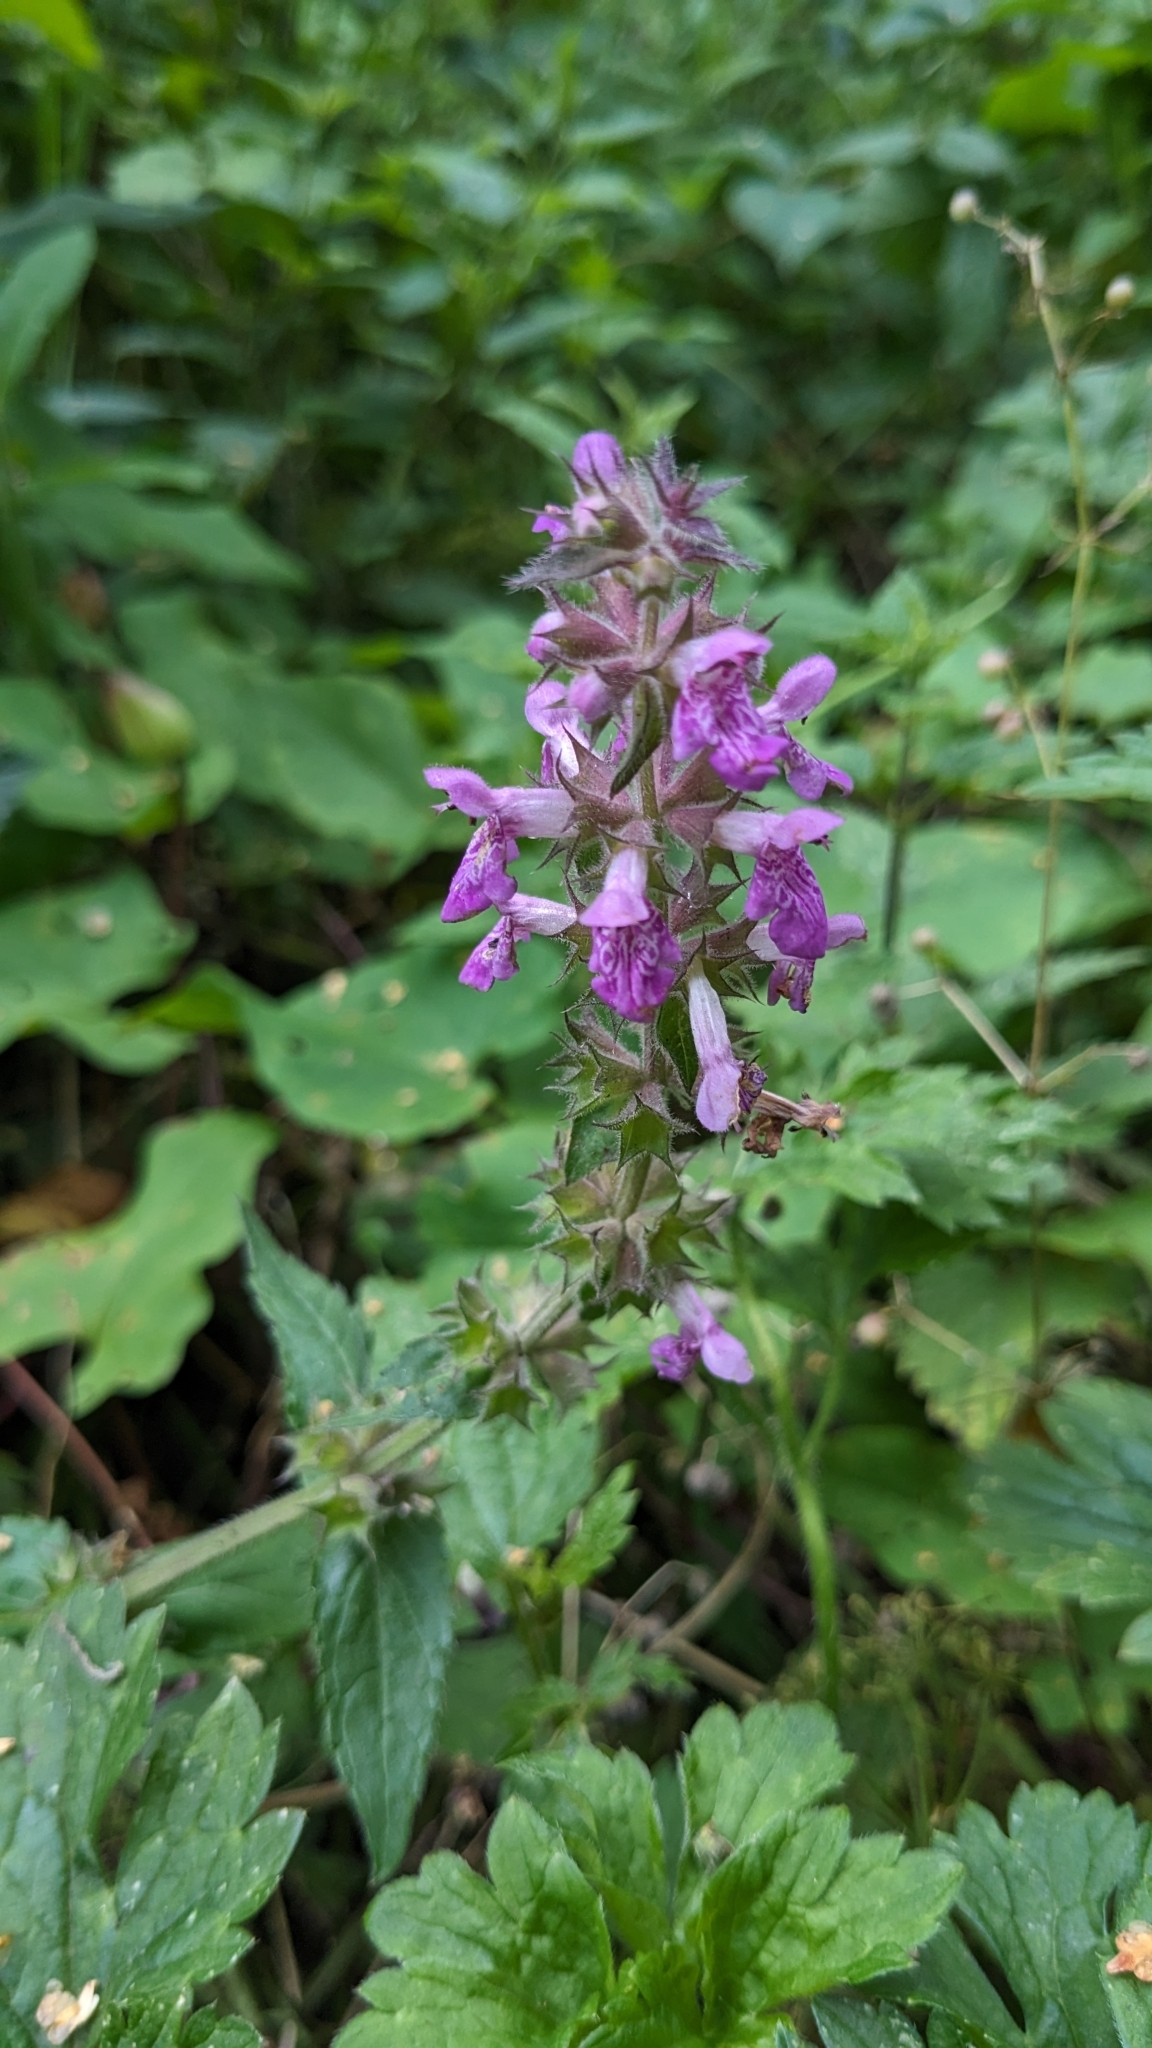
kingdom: Plantae
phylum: Tracheophyta
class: Magnoliopsida
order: Lamiales
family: Lamiaceae
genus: Stachys
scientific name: Stachys palustris
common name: Marsh woundwort
